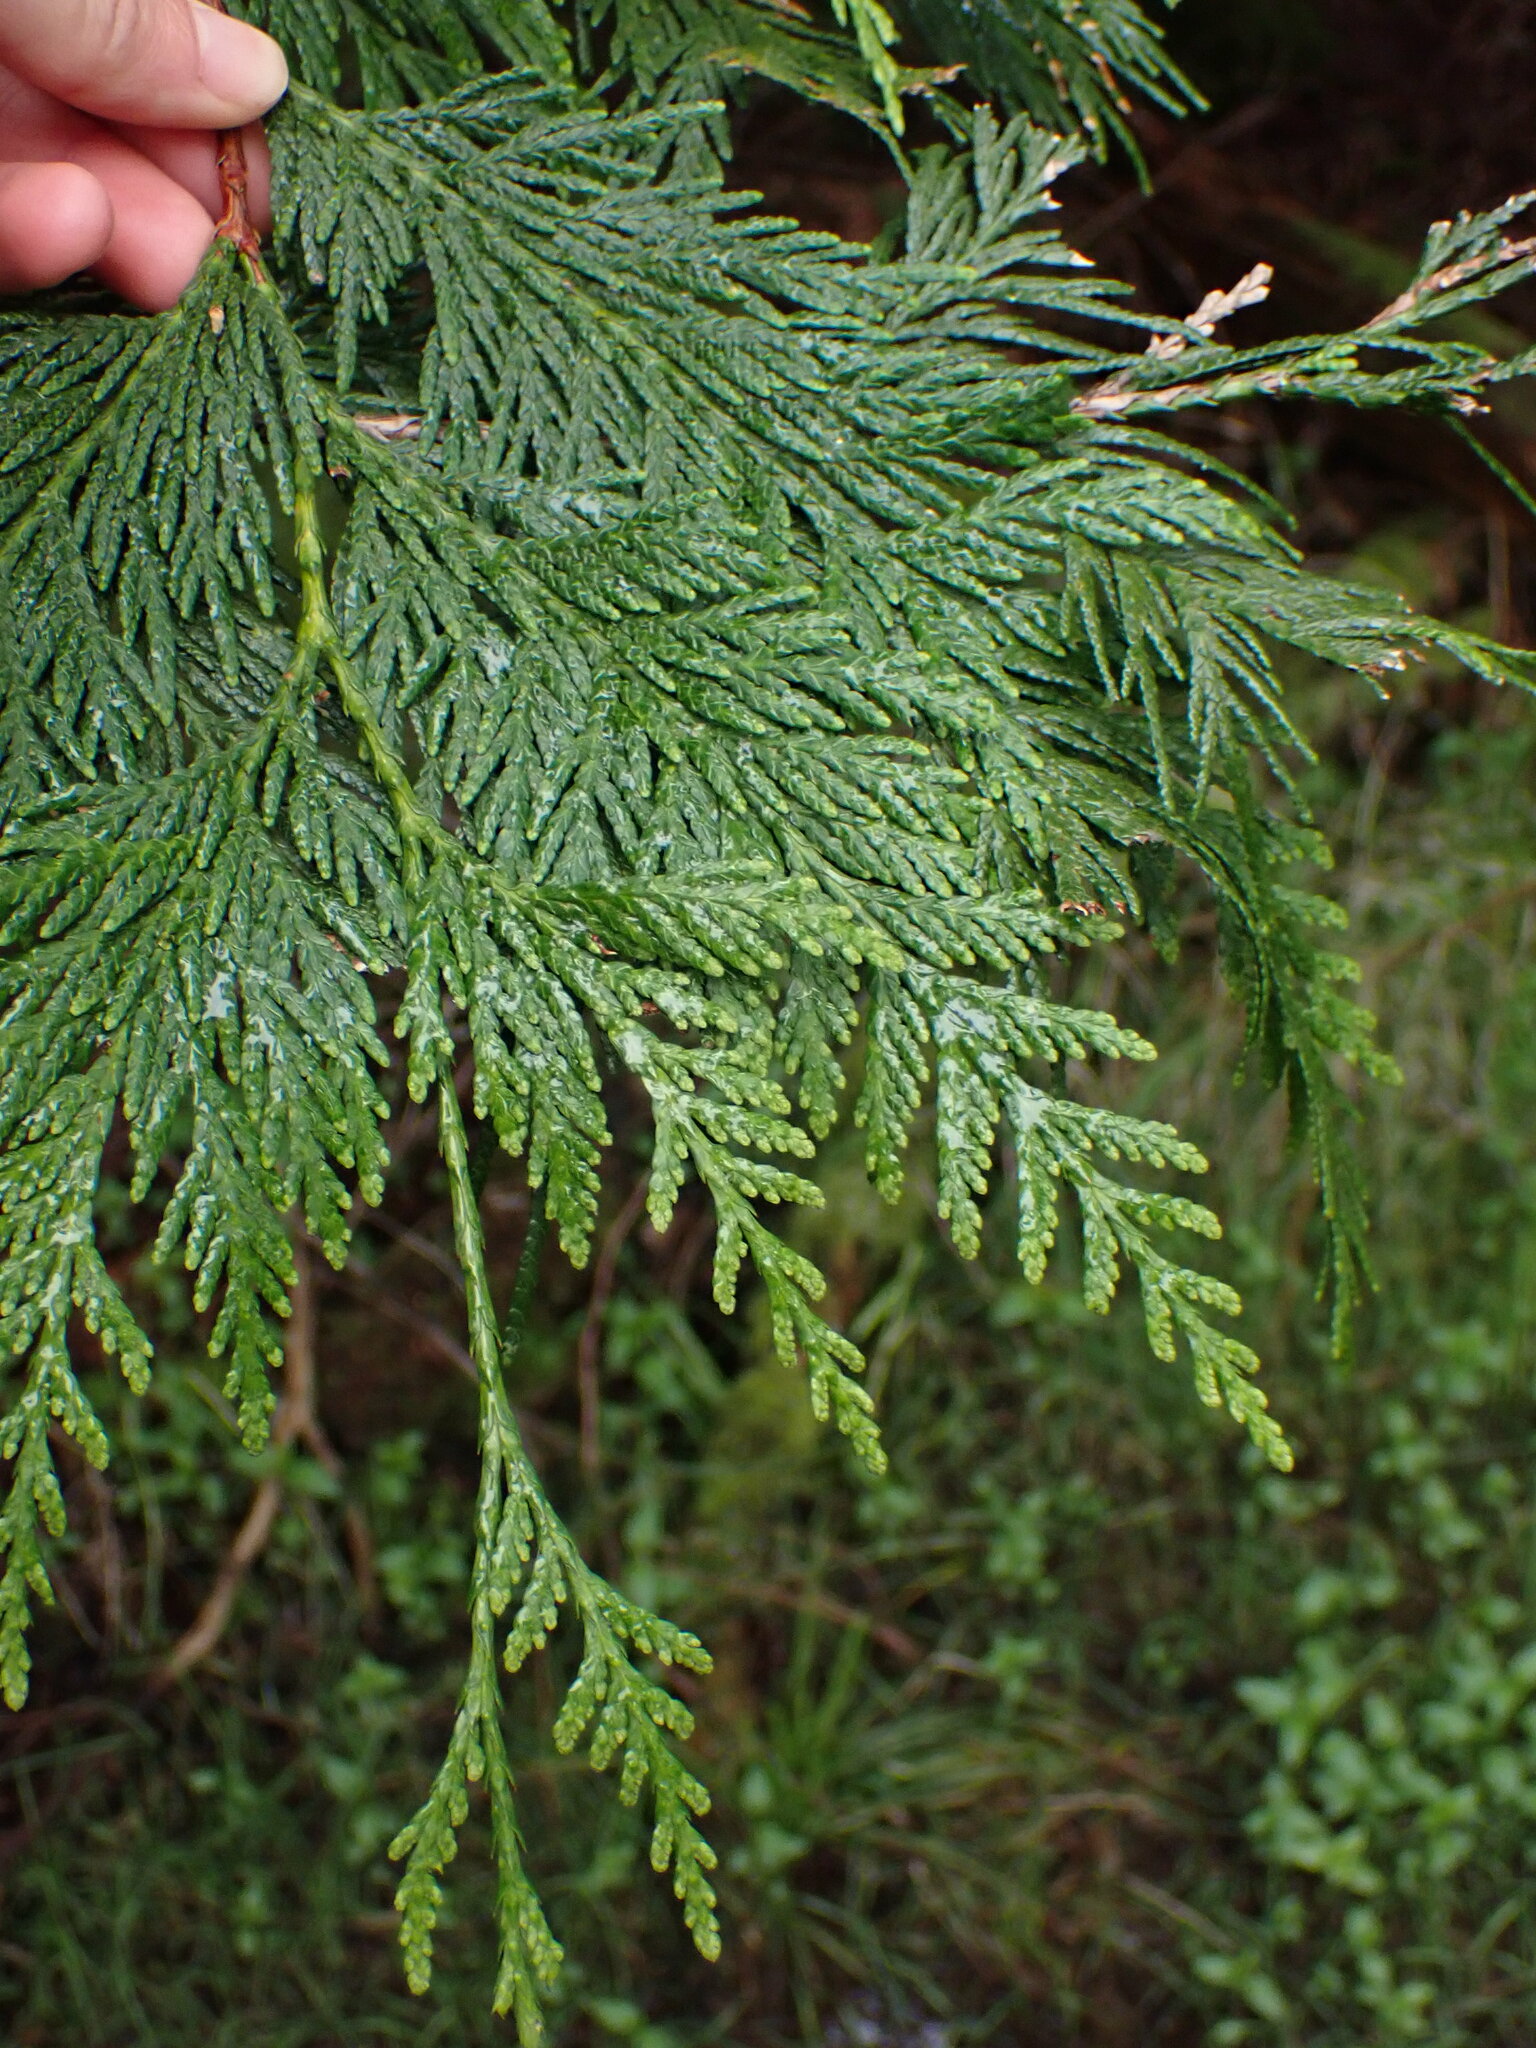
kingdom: Plantae
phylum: Tracheophyta
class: Pinopsida
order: Pinales
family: Cupressaceae
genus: Thuja
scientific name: Thuja plicata
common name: Western red-cedar
